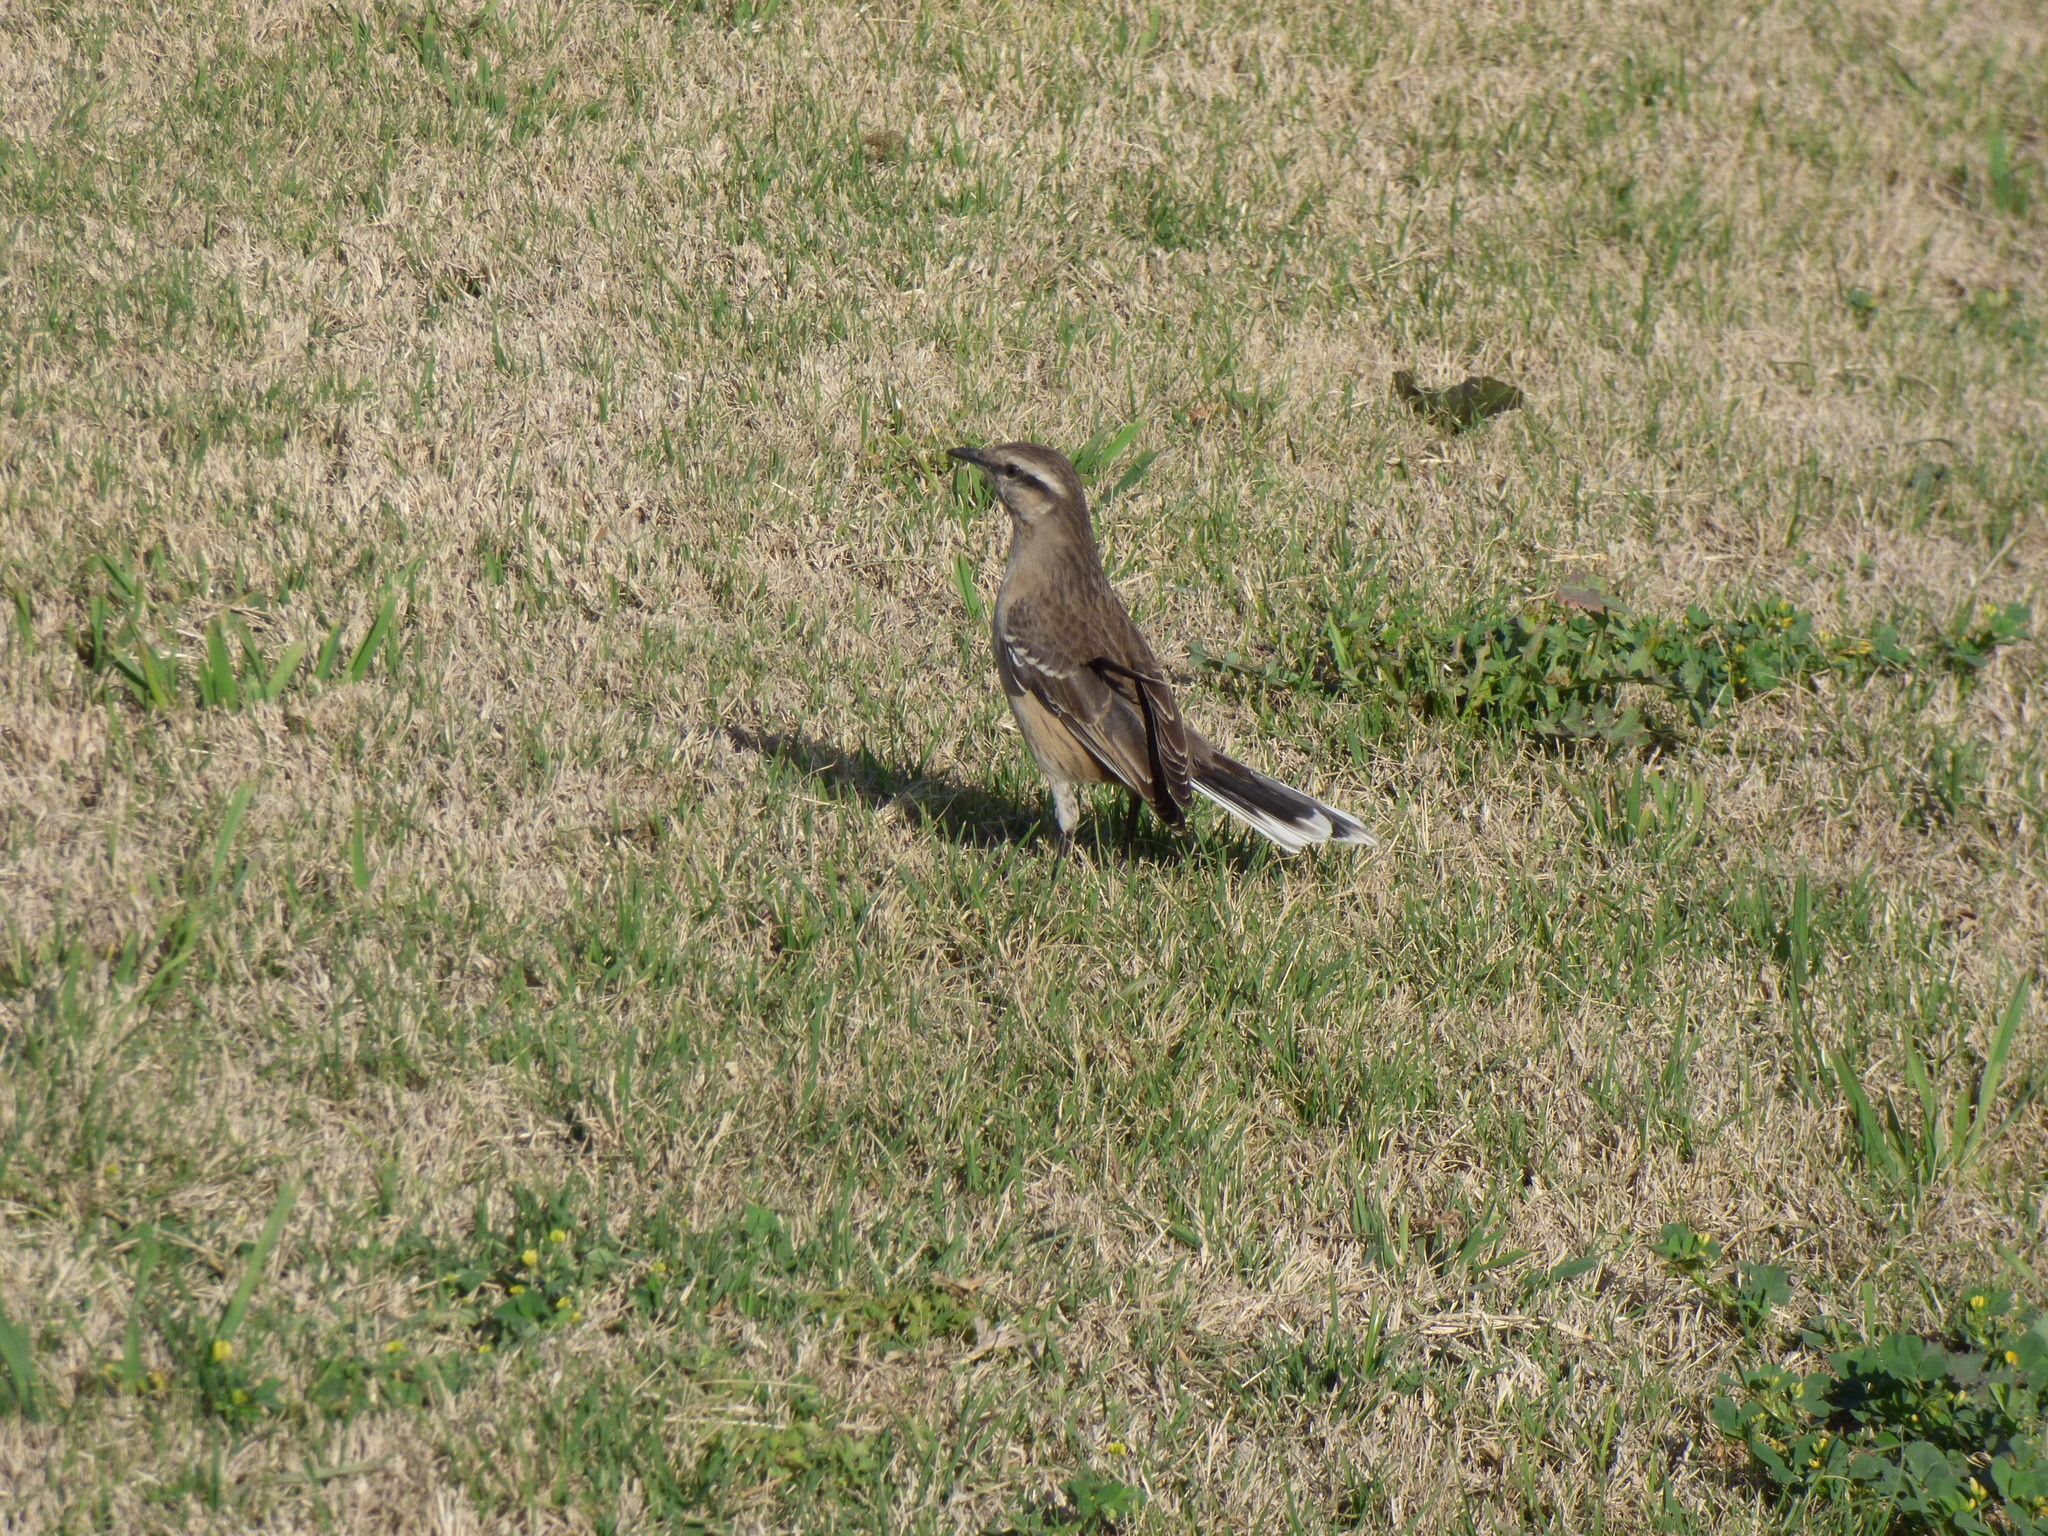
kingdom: Animalia
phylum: Chordata
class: Aves
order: Passeriformes
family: Mimidae
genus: Mimus
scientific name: Mimus saturninus
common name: Chalk-browed mockingbird
